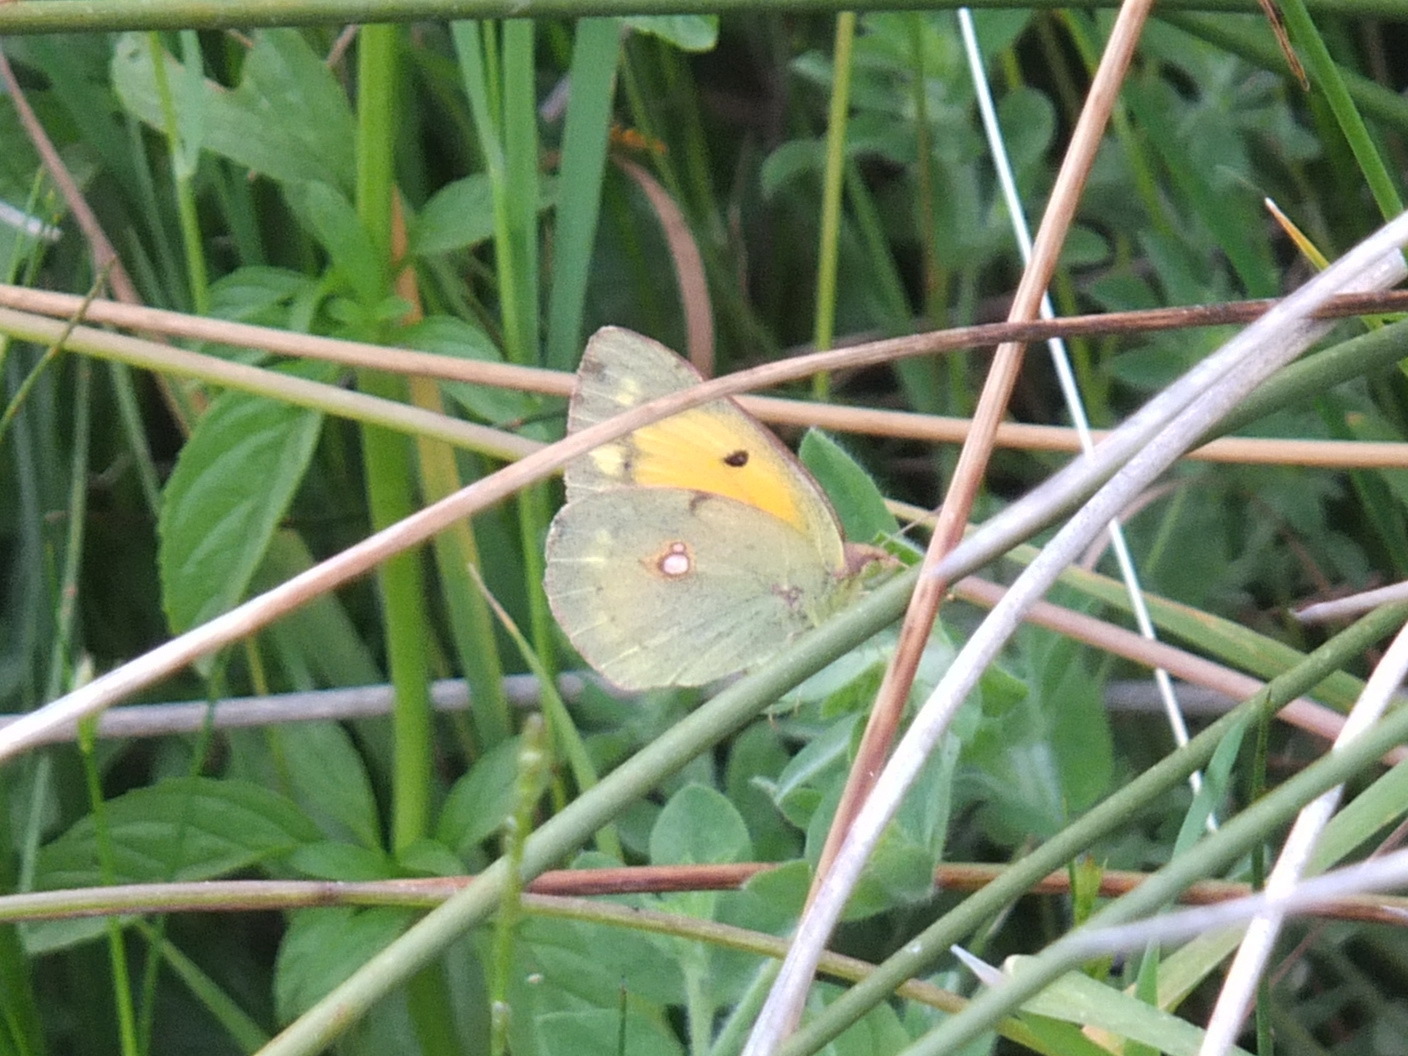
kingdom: Animalia
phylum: Arthropoda
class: Insecta
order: Lepidoptera
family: Pieridae
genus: Colias
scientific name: Colias croceus
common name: Clouded yellow
